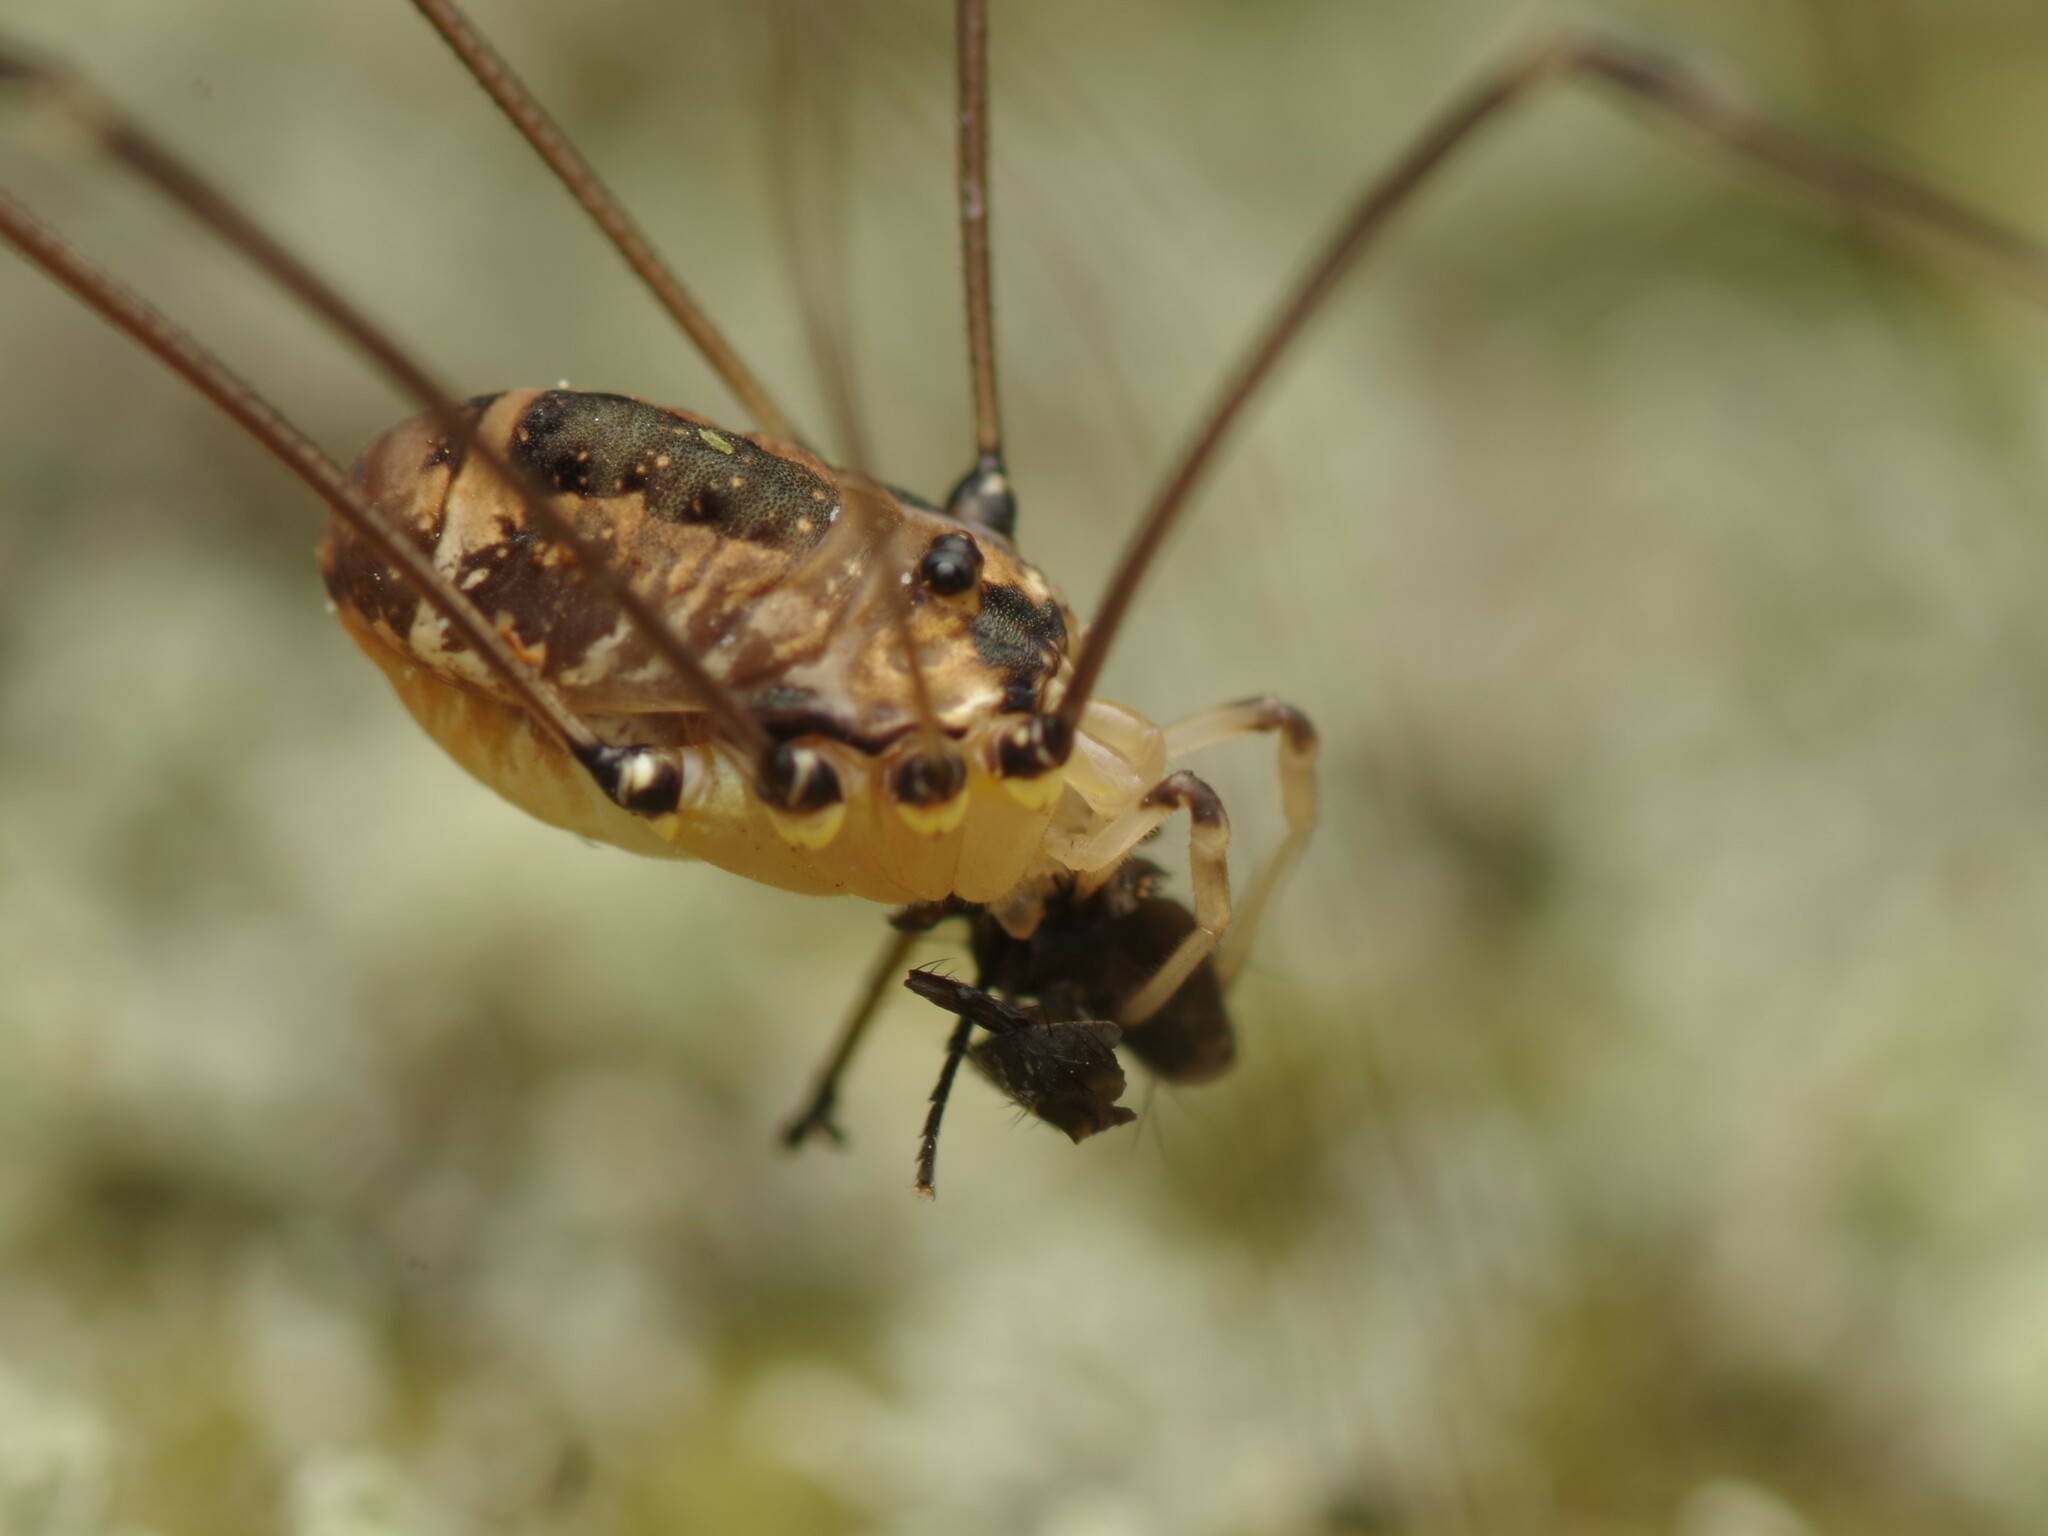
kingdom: Animalia
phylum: Arthropoda
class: Arachnida
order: Opiliones
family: Sclerosomatidae
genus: Leiobunum
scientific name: Leiobunum rotundum
